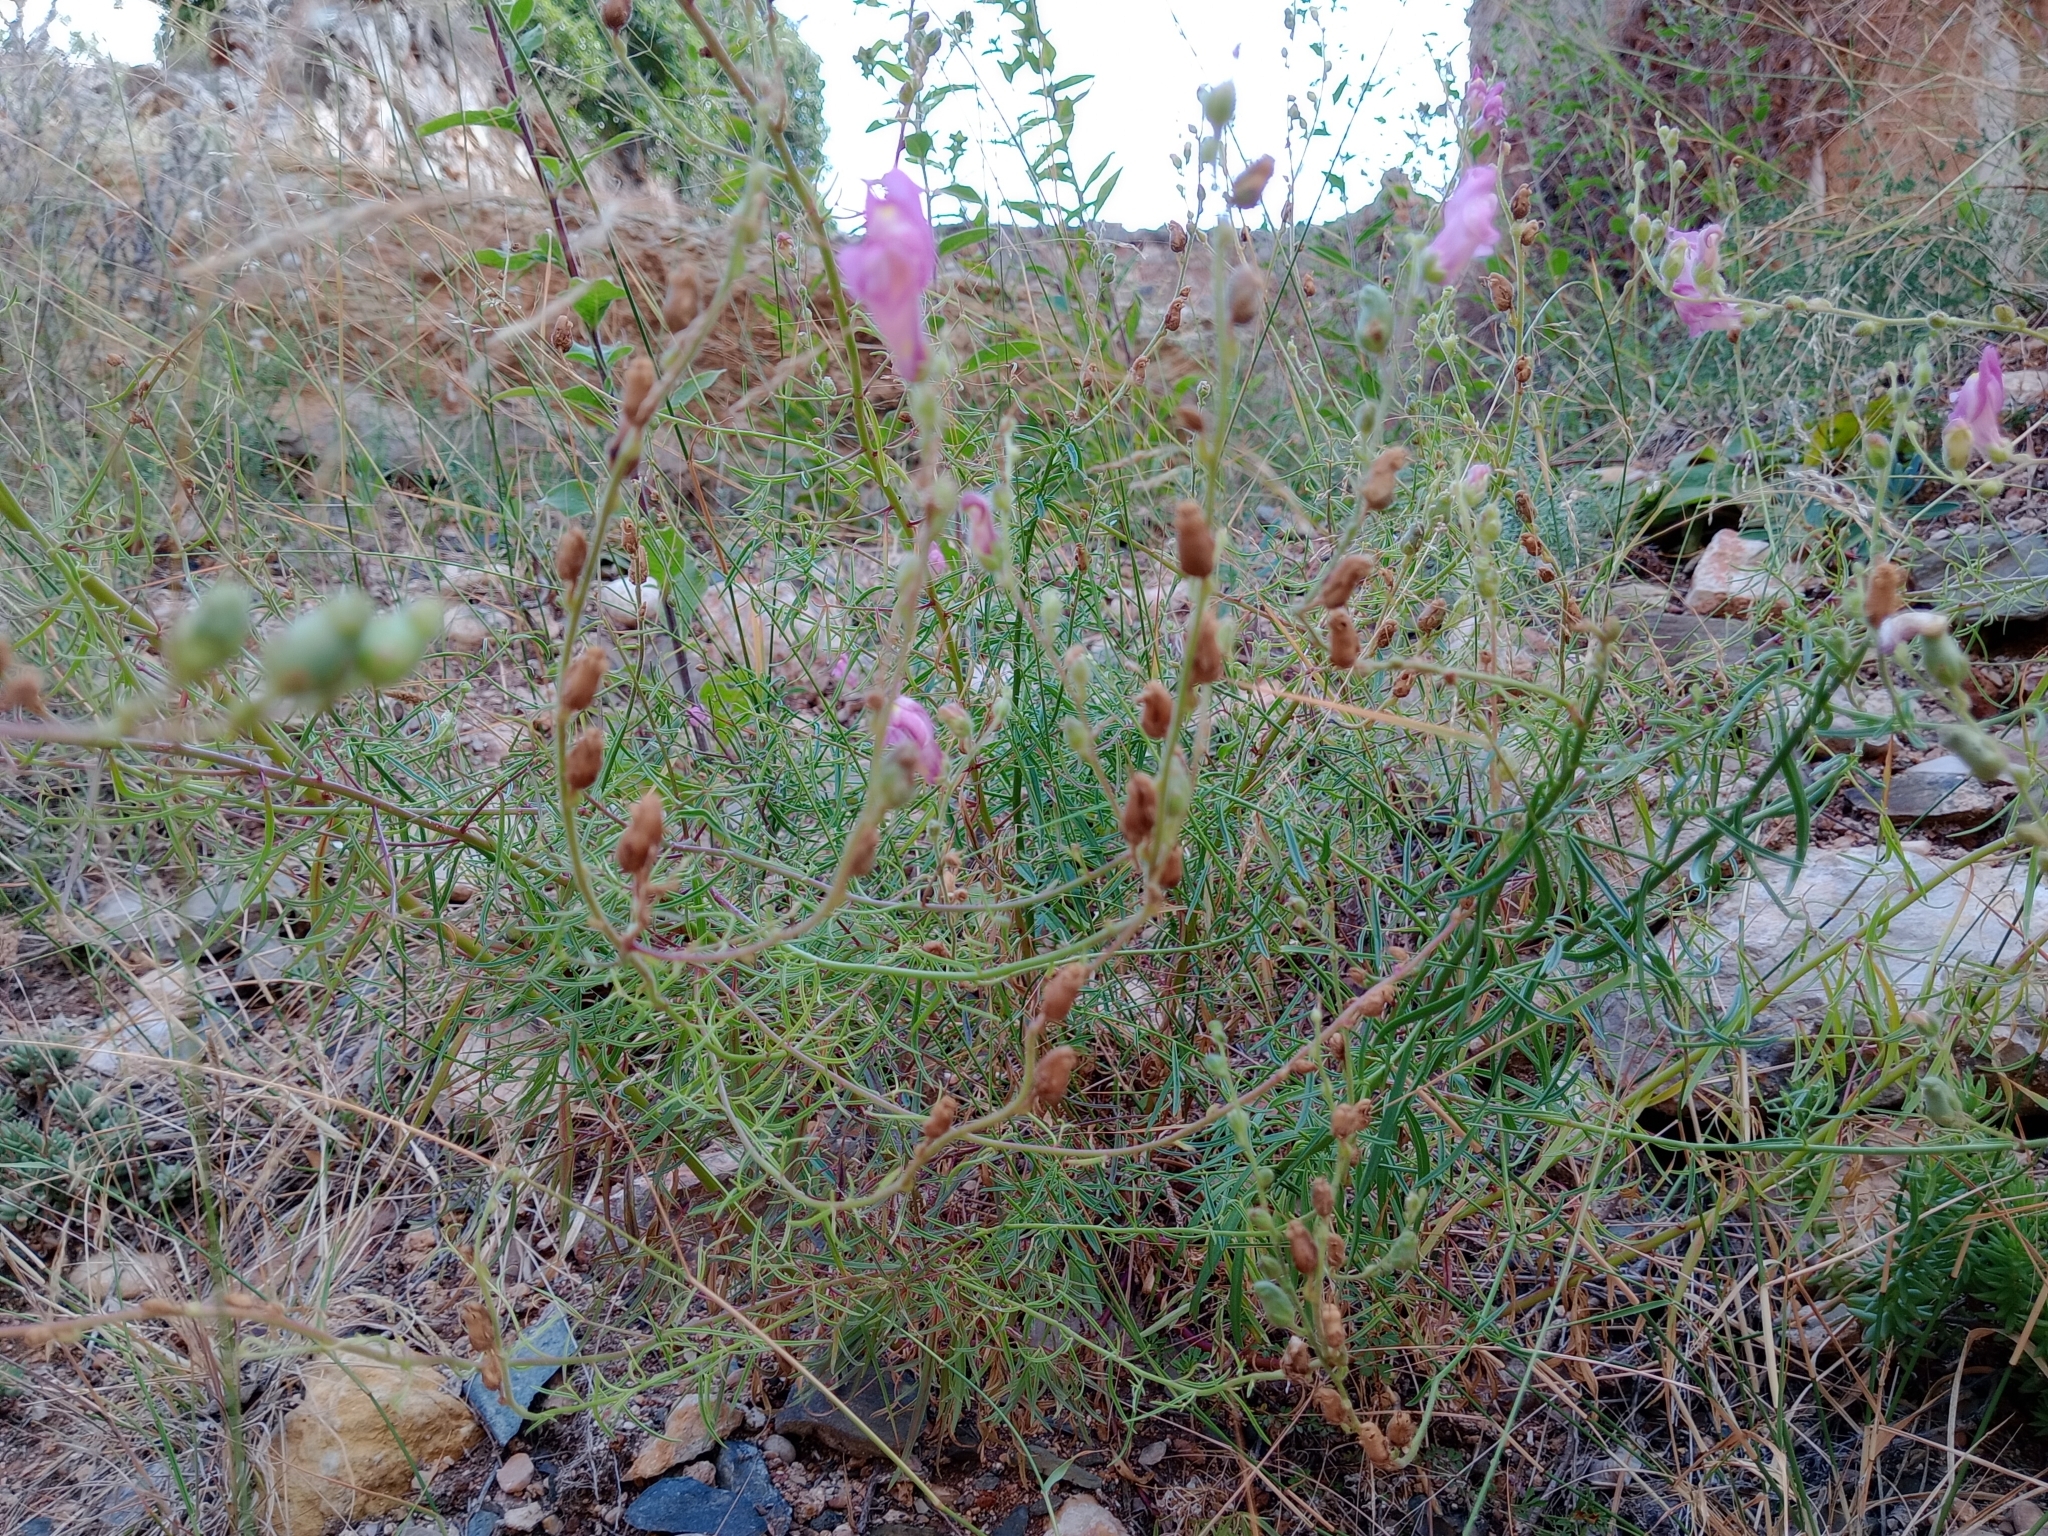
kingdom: Plantae
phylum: Tracheophyta
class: Magnoliopsida
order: Lamiales
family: Plantaginaceae
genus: Antirrhinum
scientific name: Antirrhinum litigiosum
